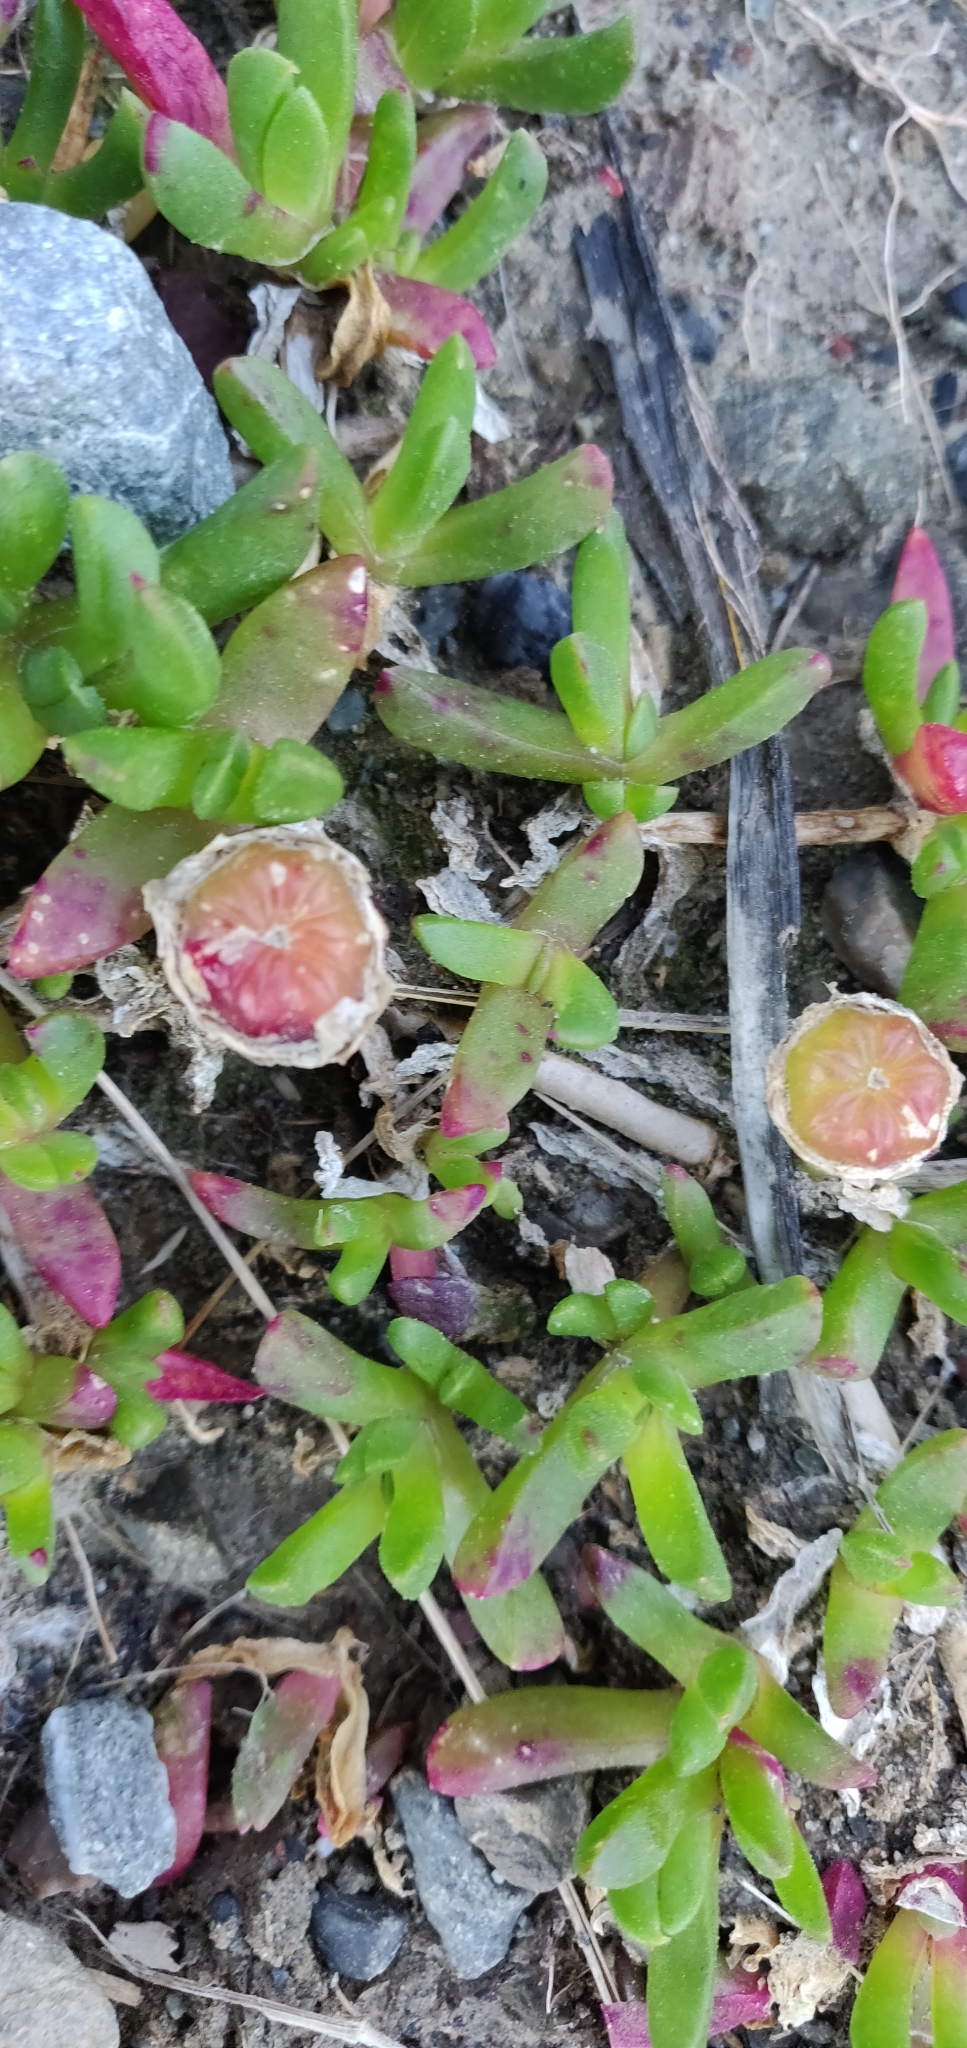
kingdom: Plantae
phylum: Tracheophyta
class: Magnoliopsida
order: Caryophyllales
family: Aizoaceae
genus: Disphyma
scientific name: Disphyma australe
